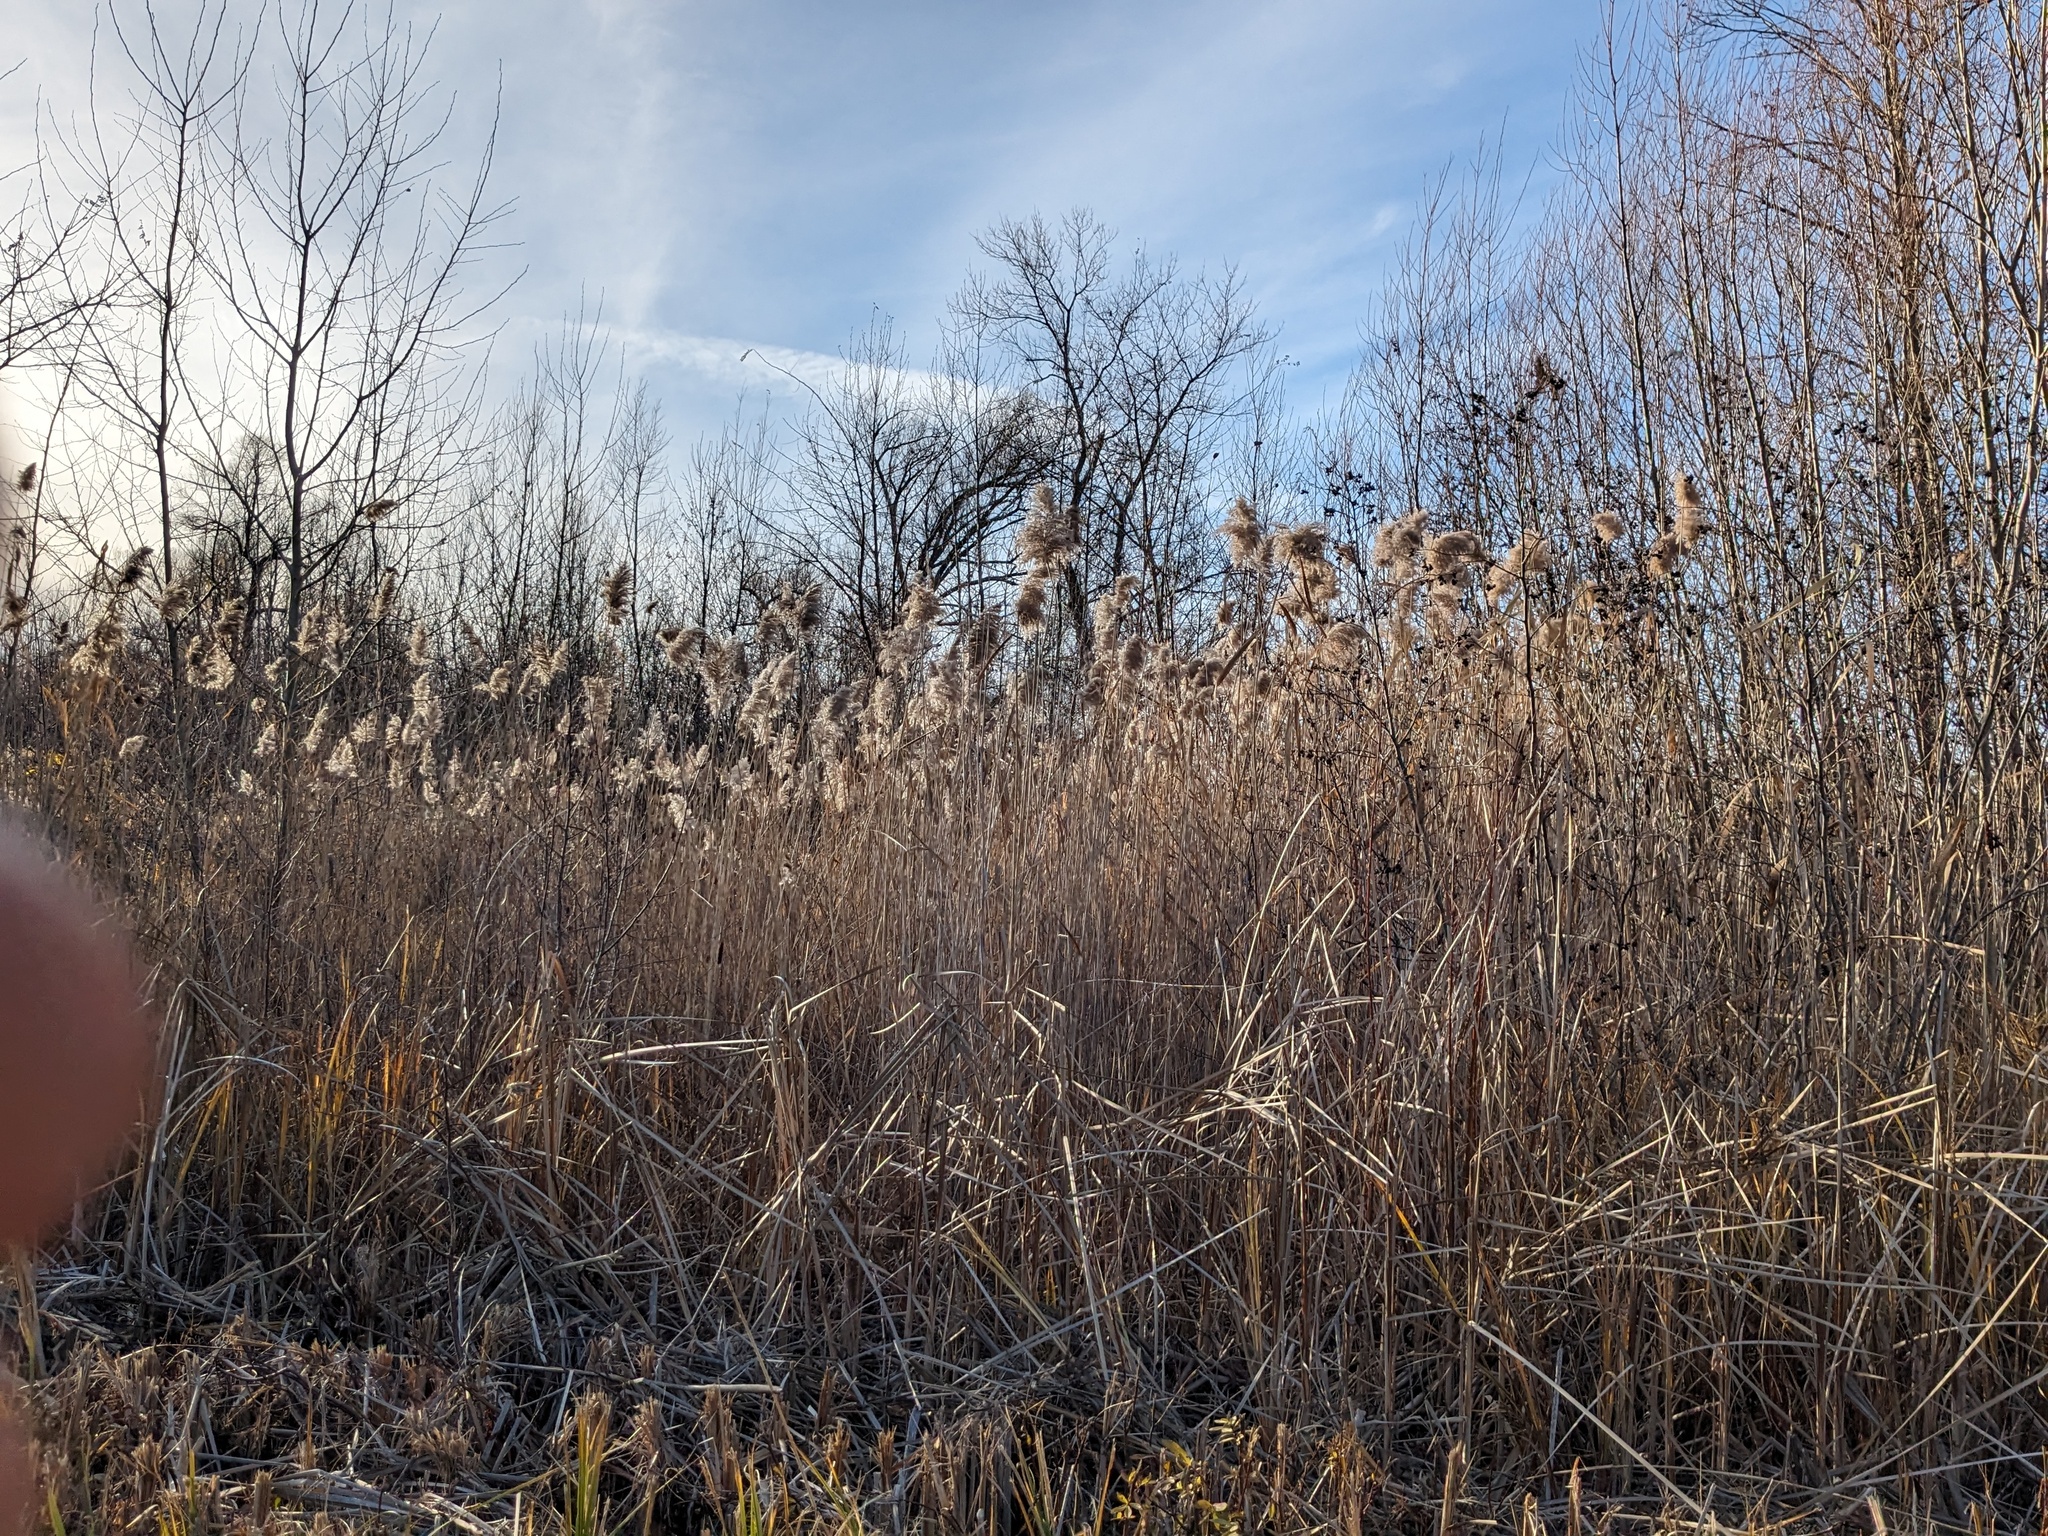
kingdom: Plantae
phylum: Tracheophyta
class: Liliopsida
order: Poales
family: Poaceae
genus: Phragmites
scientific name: Phragmites australis
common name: Common reed
